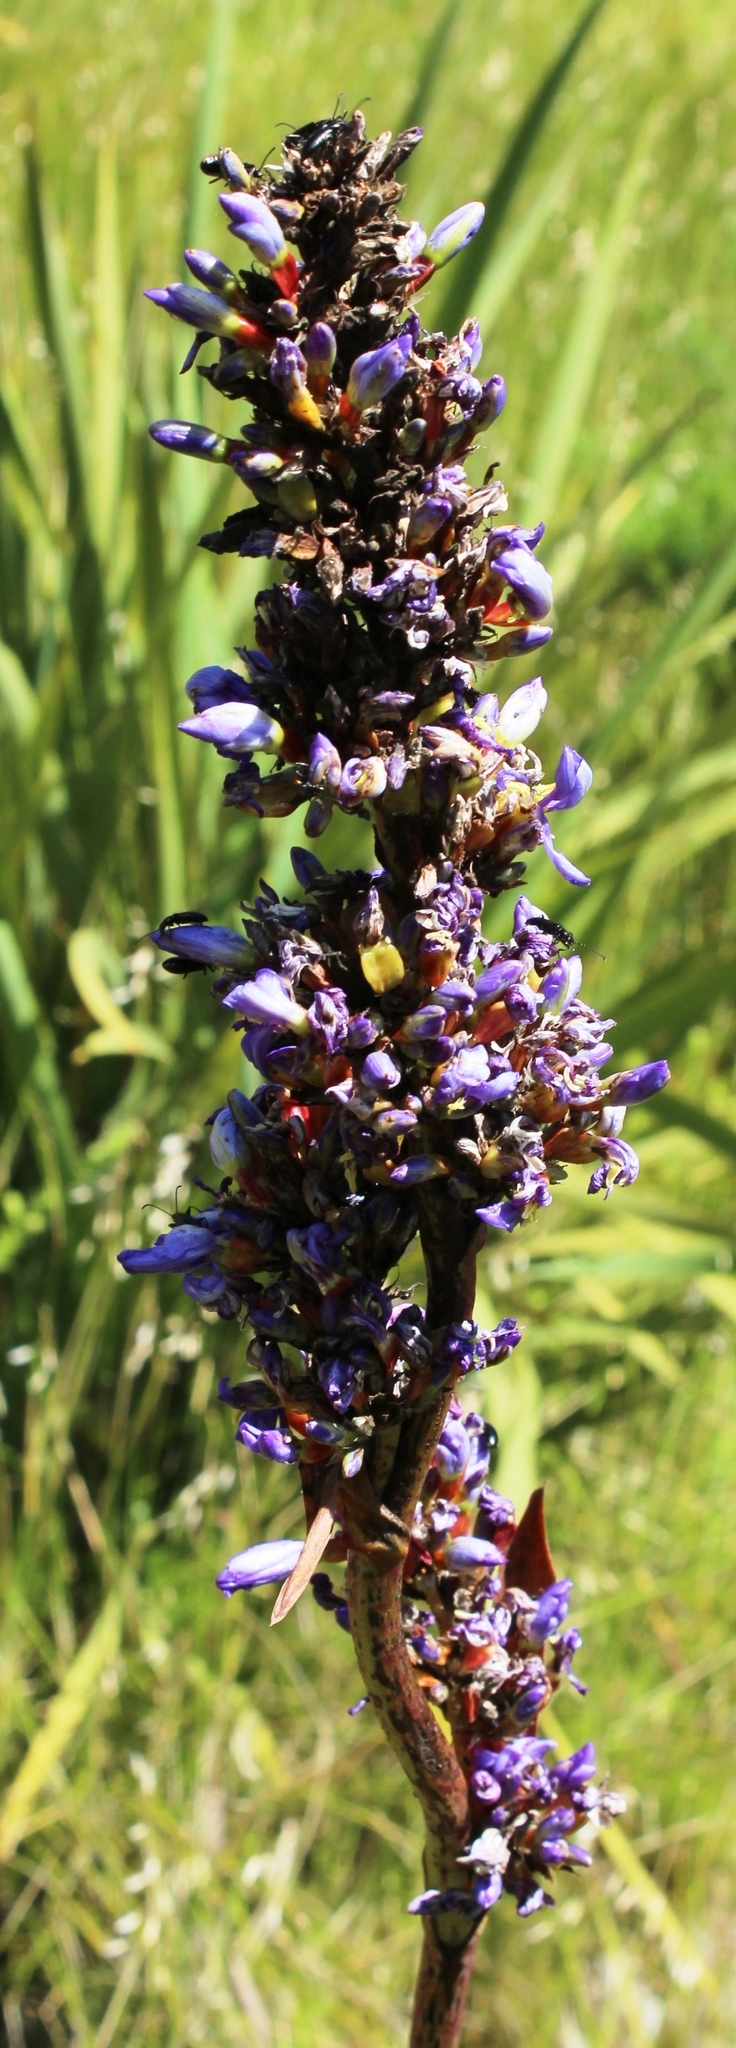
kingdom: Plantae
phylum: Tracheophyta
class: Liliopsida
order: Asparagales
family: Iridaceae
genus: Aristea
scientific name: Aristea capitata
